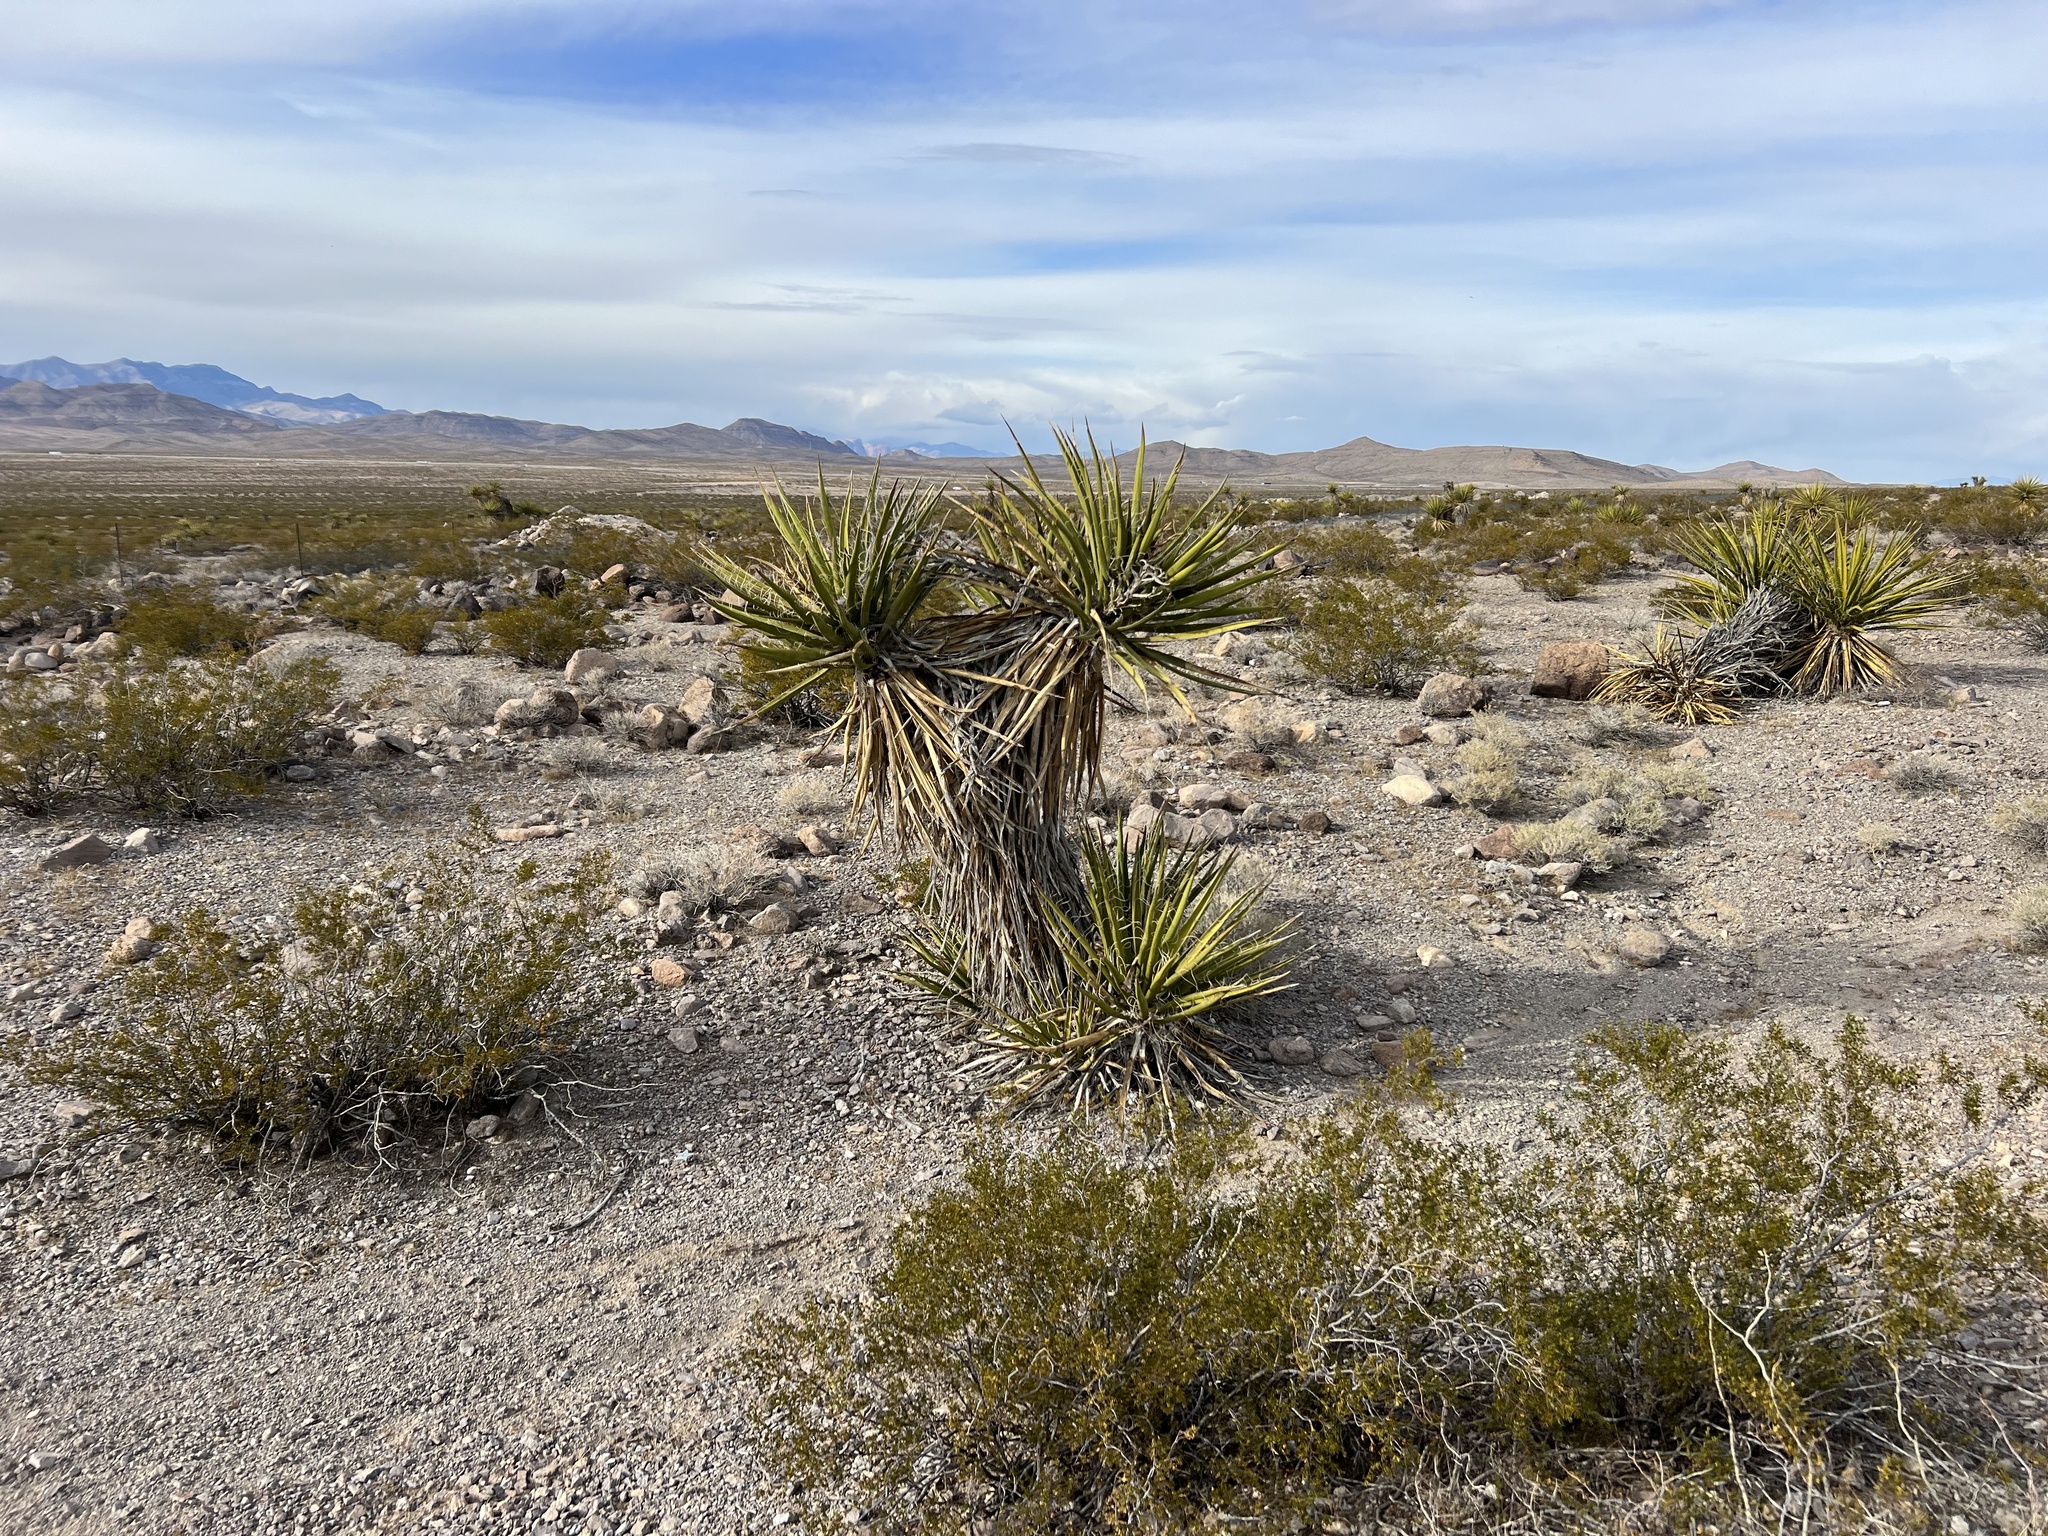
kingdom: Plantae
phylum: Tracheophyta
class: Liliopsida
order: Asparagales
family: Asparagaceae
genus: Yucca
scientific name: Yucca schidigera
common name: Mojave yucca
